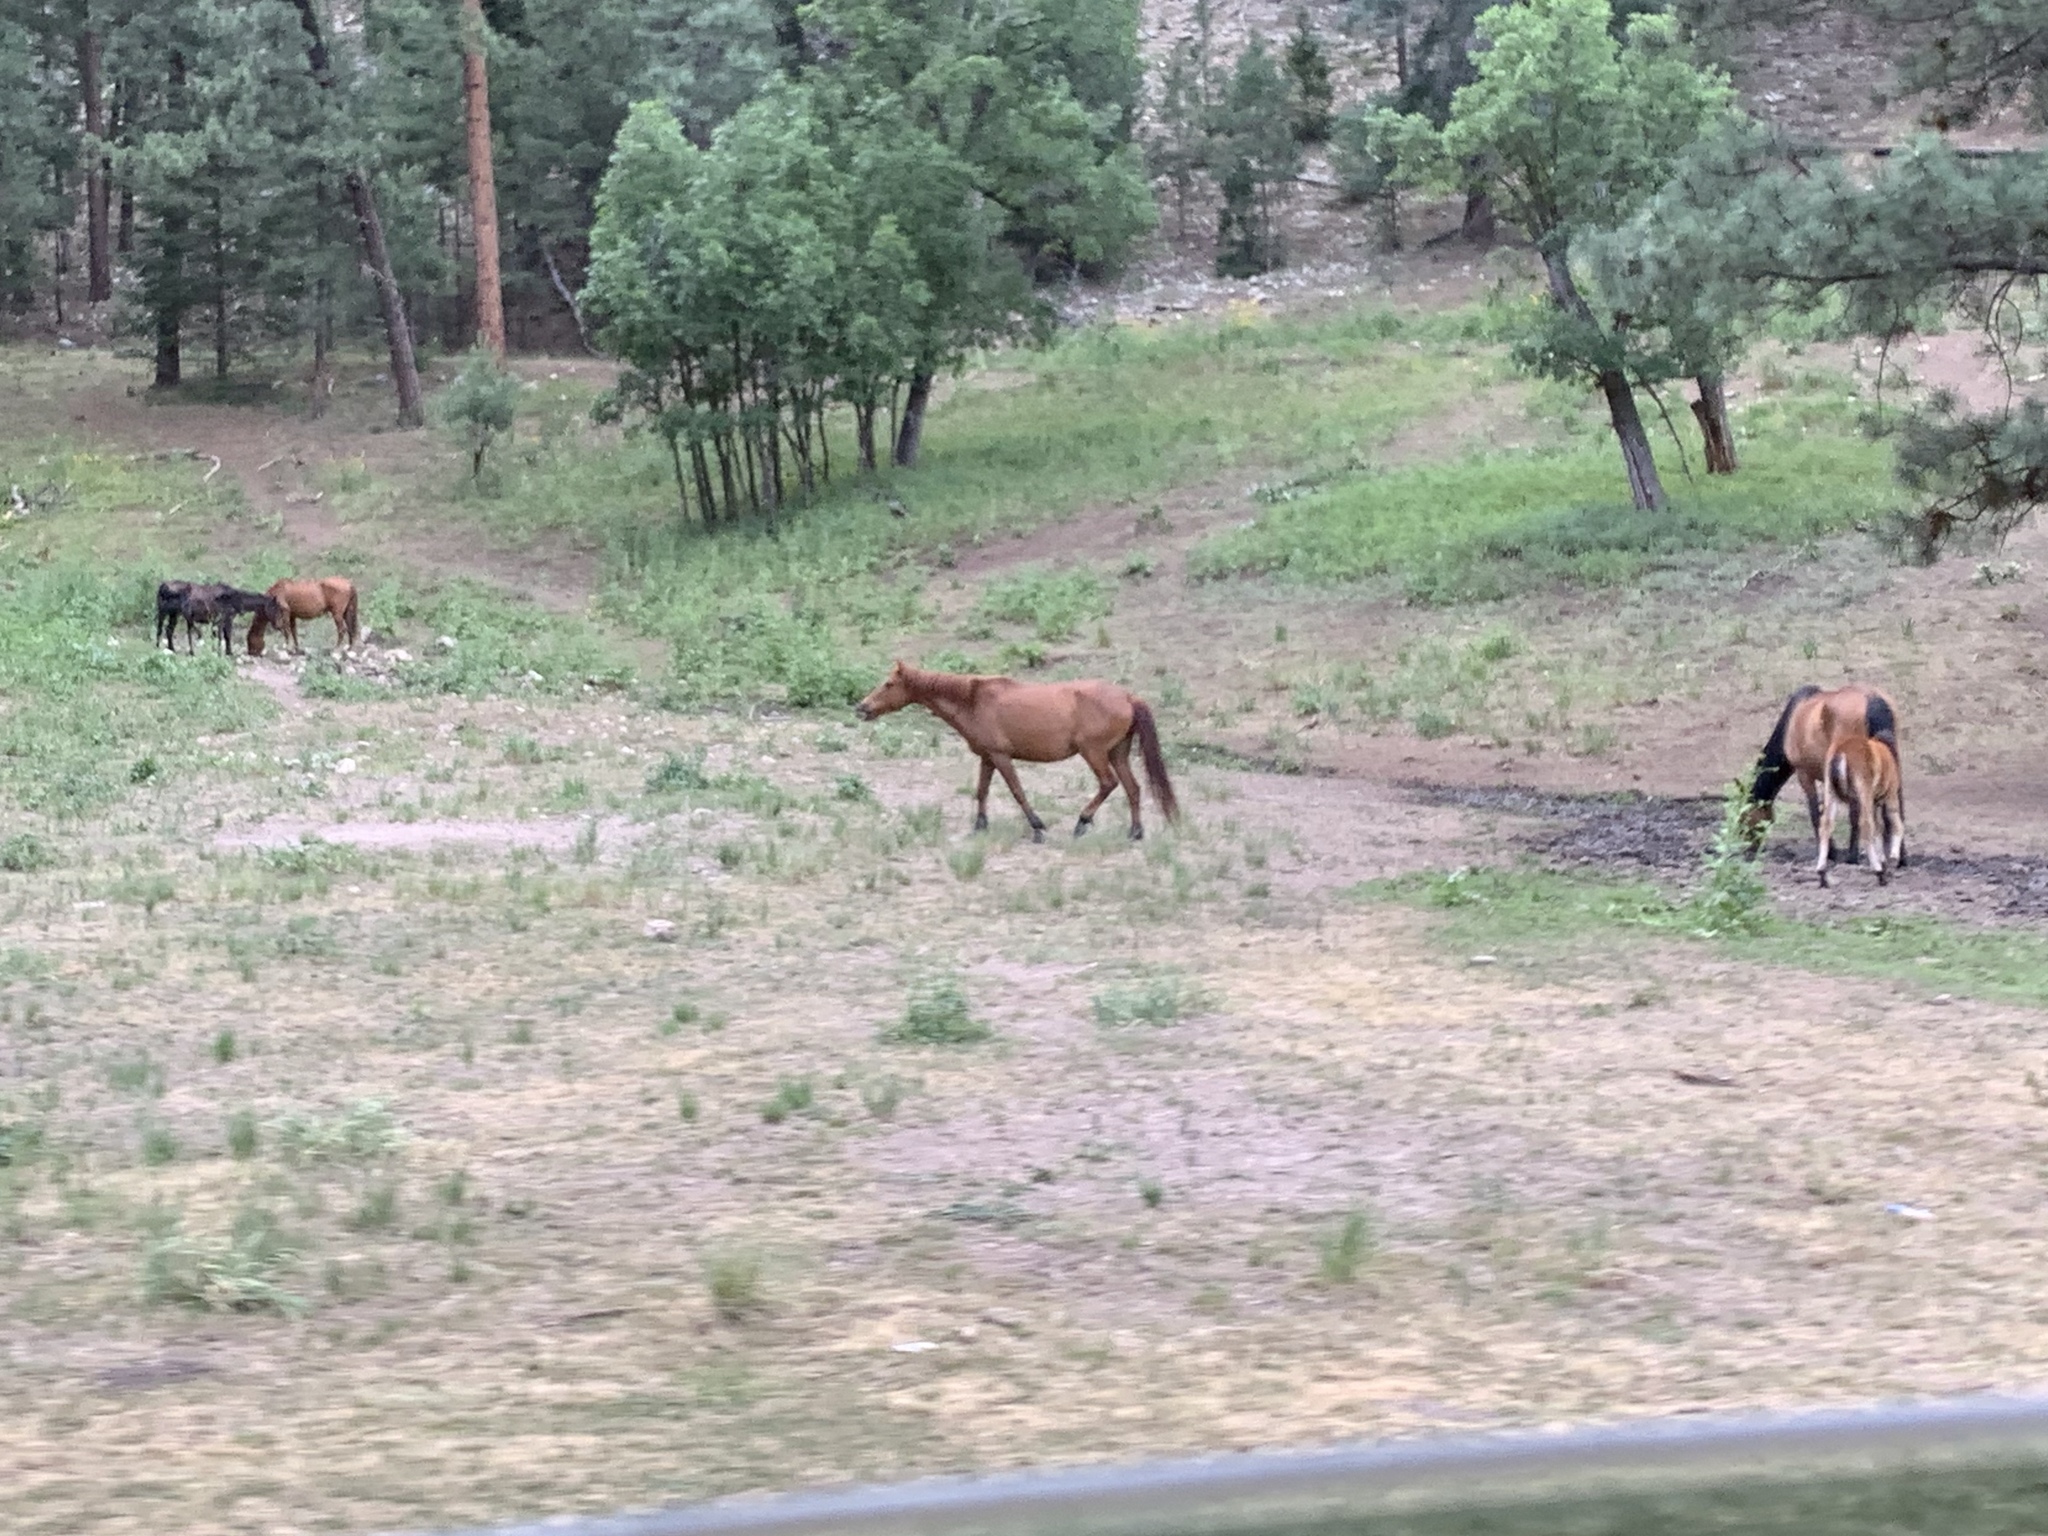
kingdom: Animalia
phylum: Chordata
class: Mammalia
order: Perissodactyla
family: Equidae
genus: Equus
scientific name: Equus caballus
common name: Horse
